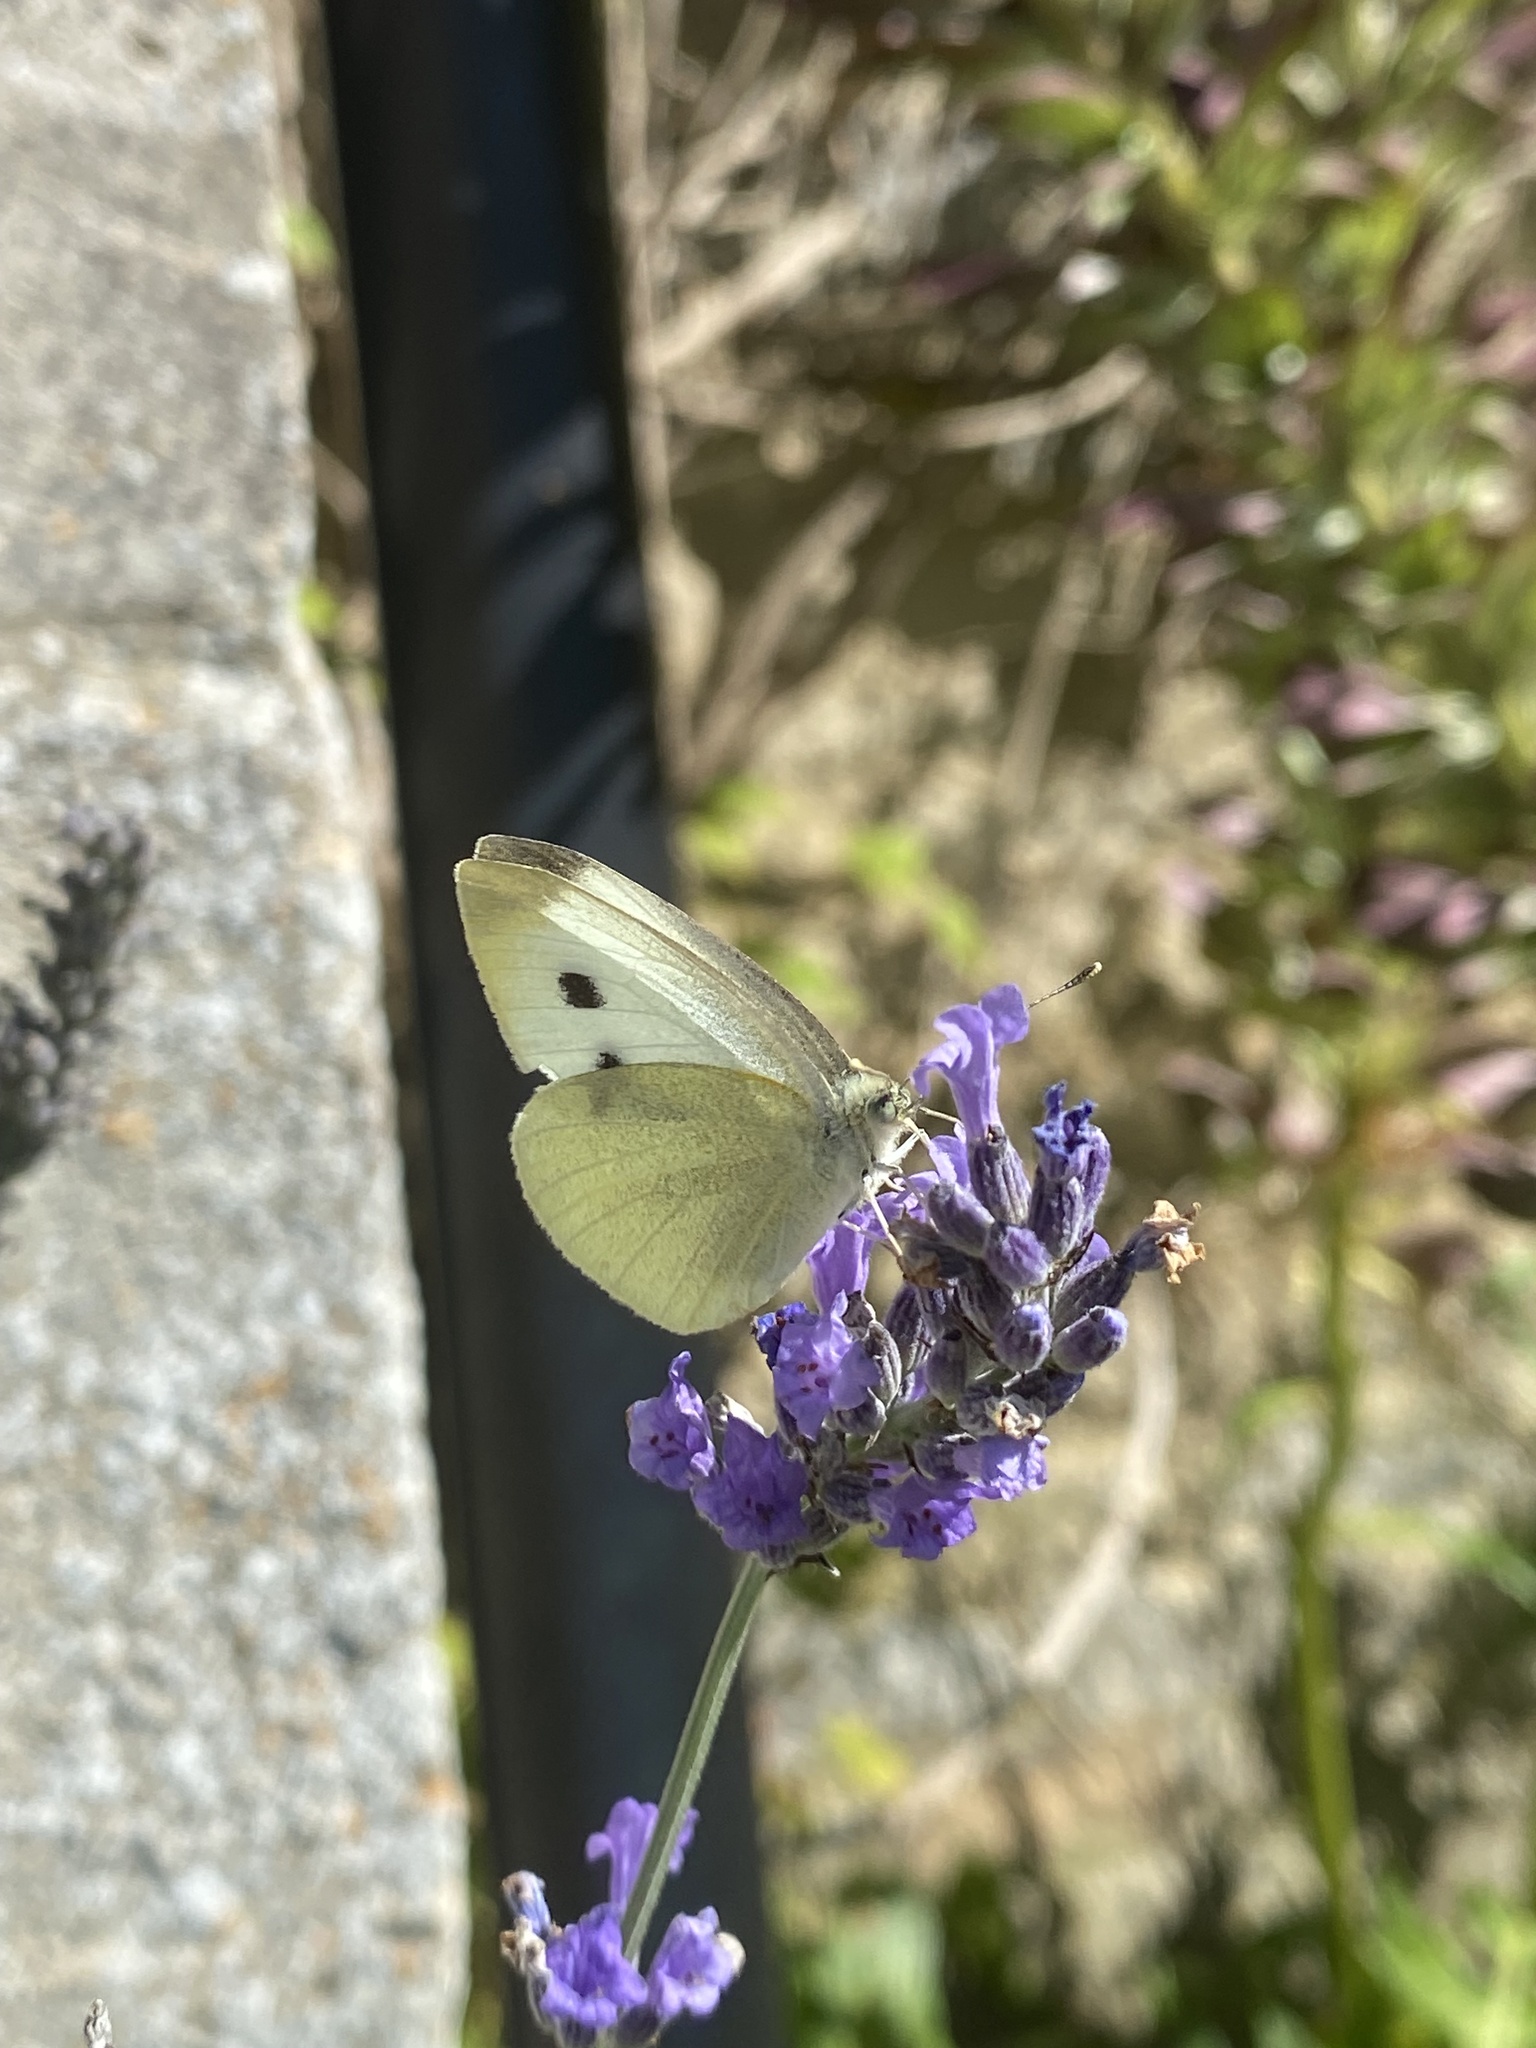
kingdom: Animalia
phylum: Arthropoda
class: Insecta
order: Lepidoptera
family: Pieridae
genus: Pieris
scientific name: Pieris rapae
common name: Small white
